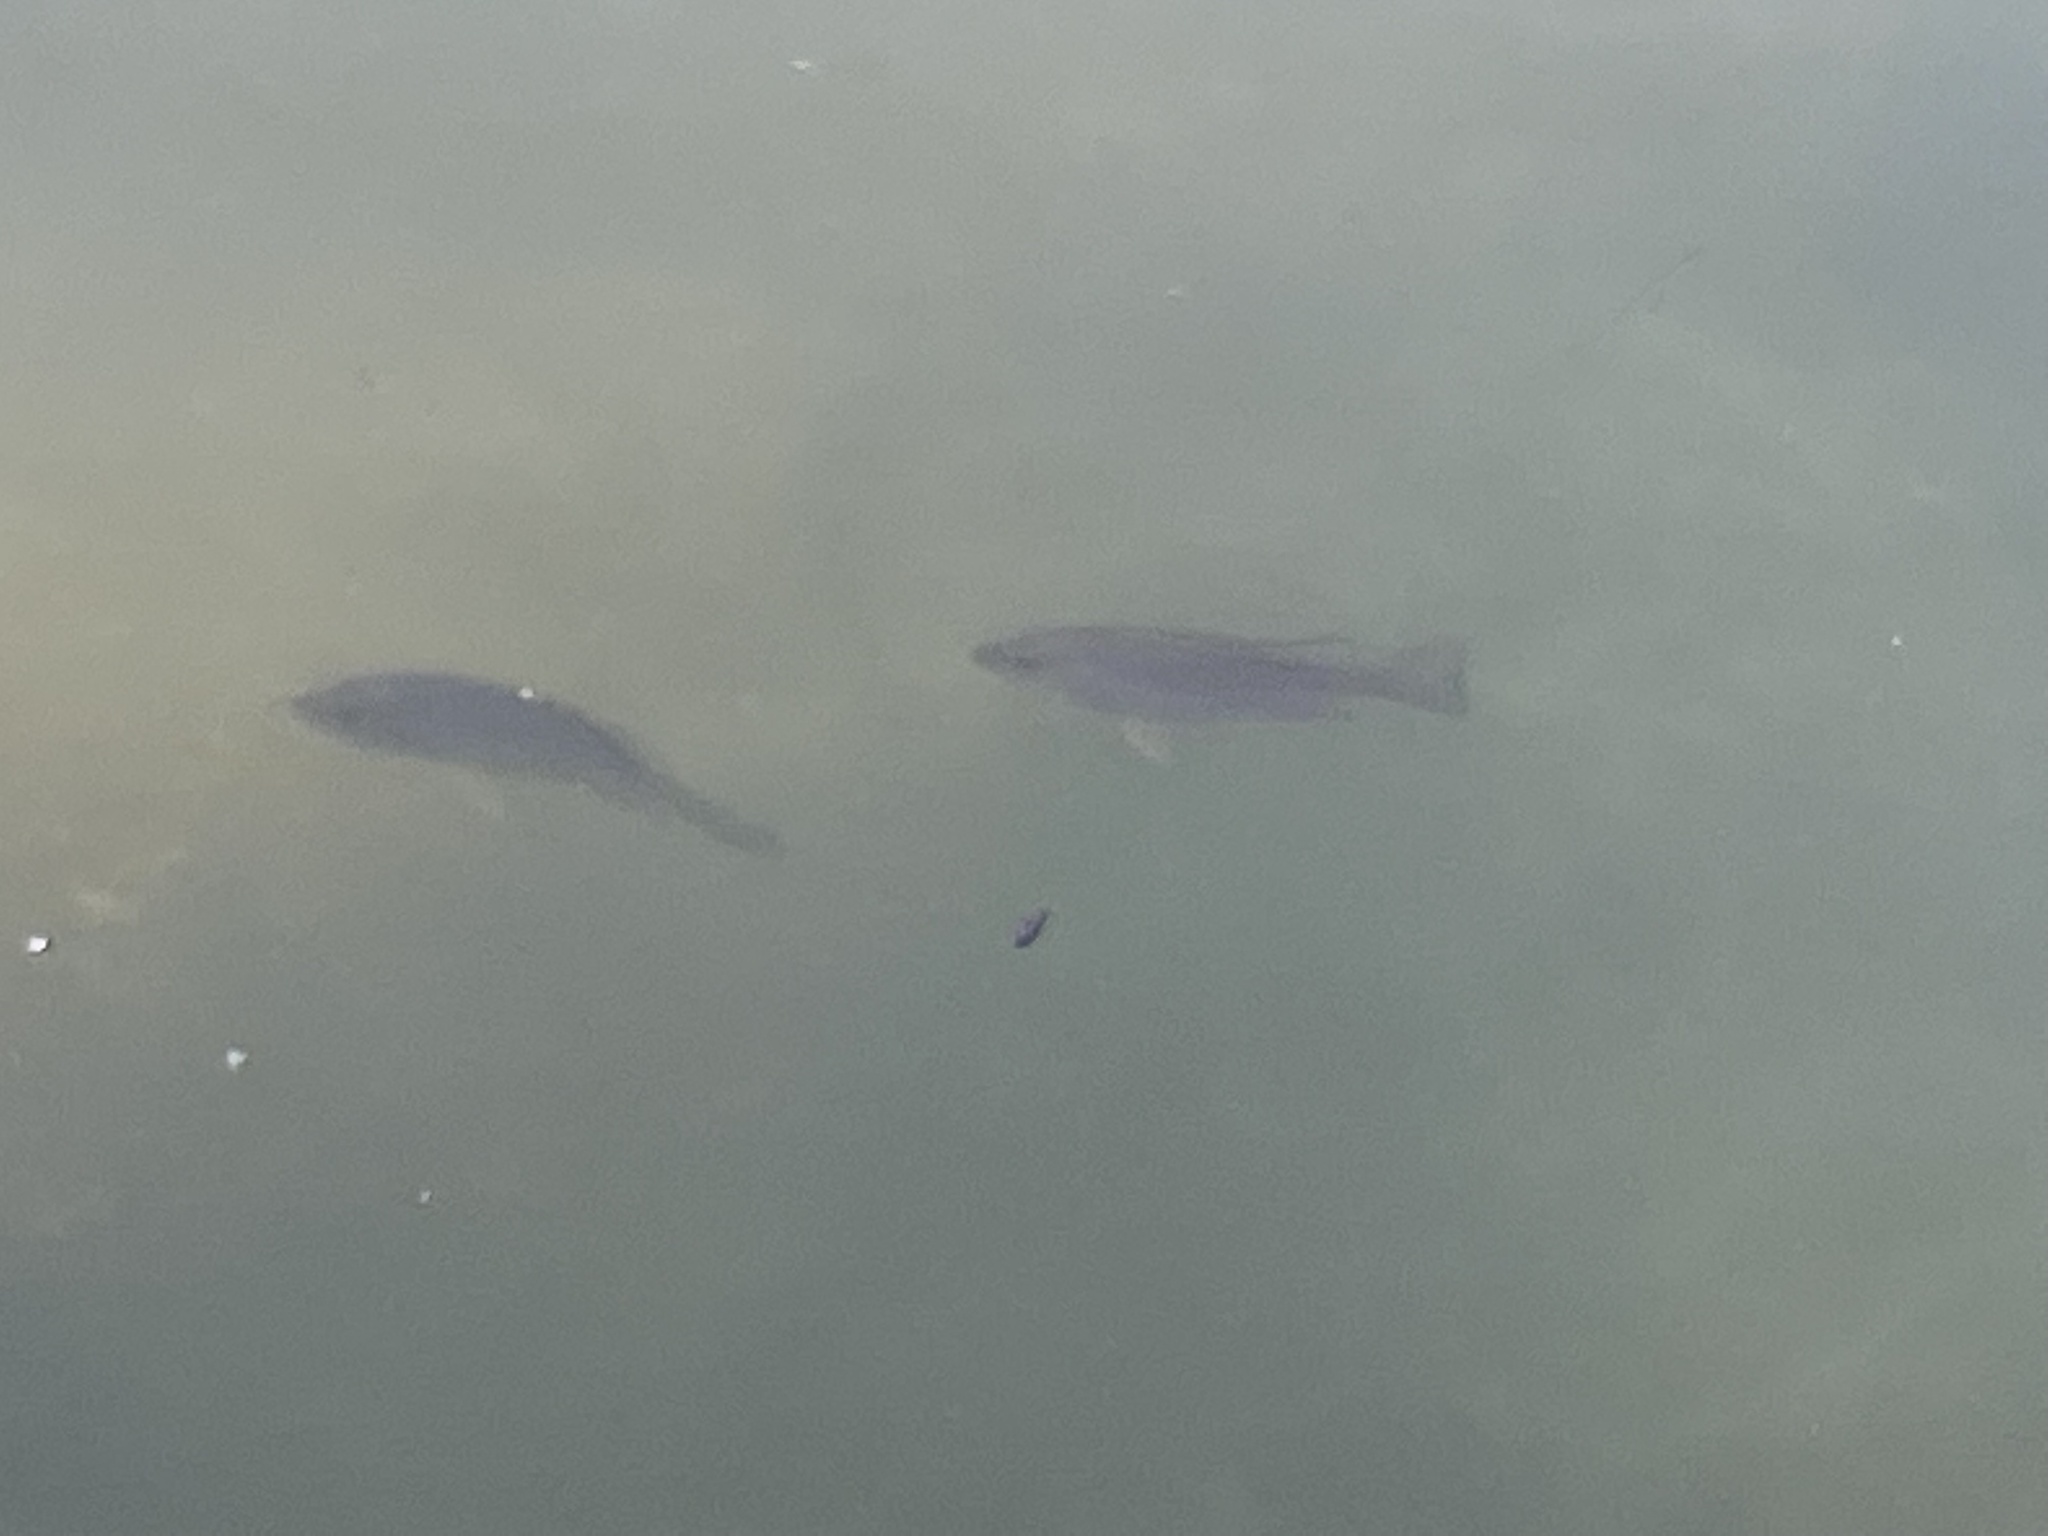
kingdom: Animalia
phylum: Chordata
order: Perciformes
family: Lutjanidae
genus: Lutjanus
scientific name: Lutjanus griseus
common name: Gray snapper
